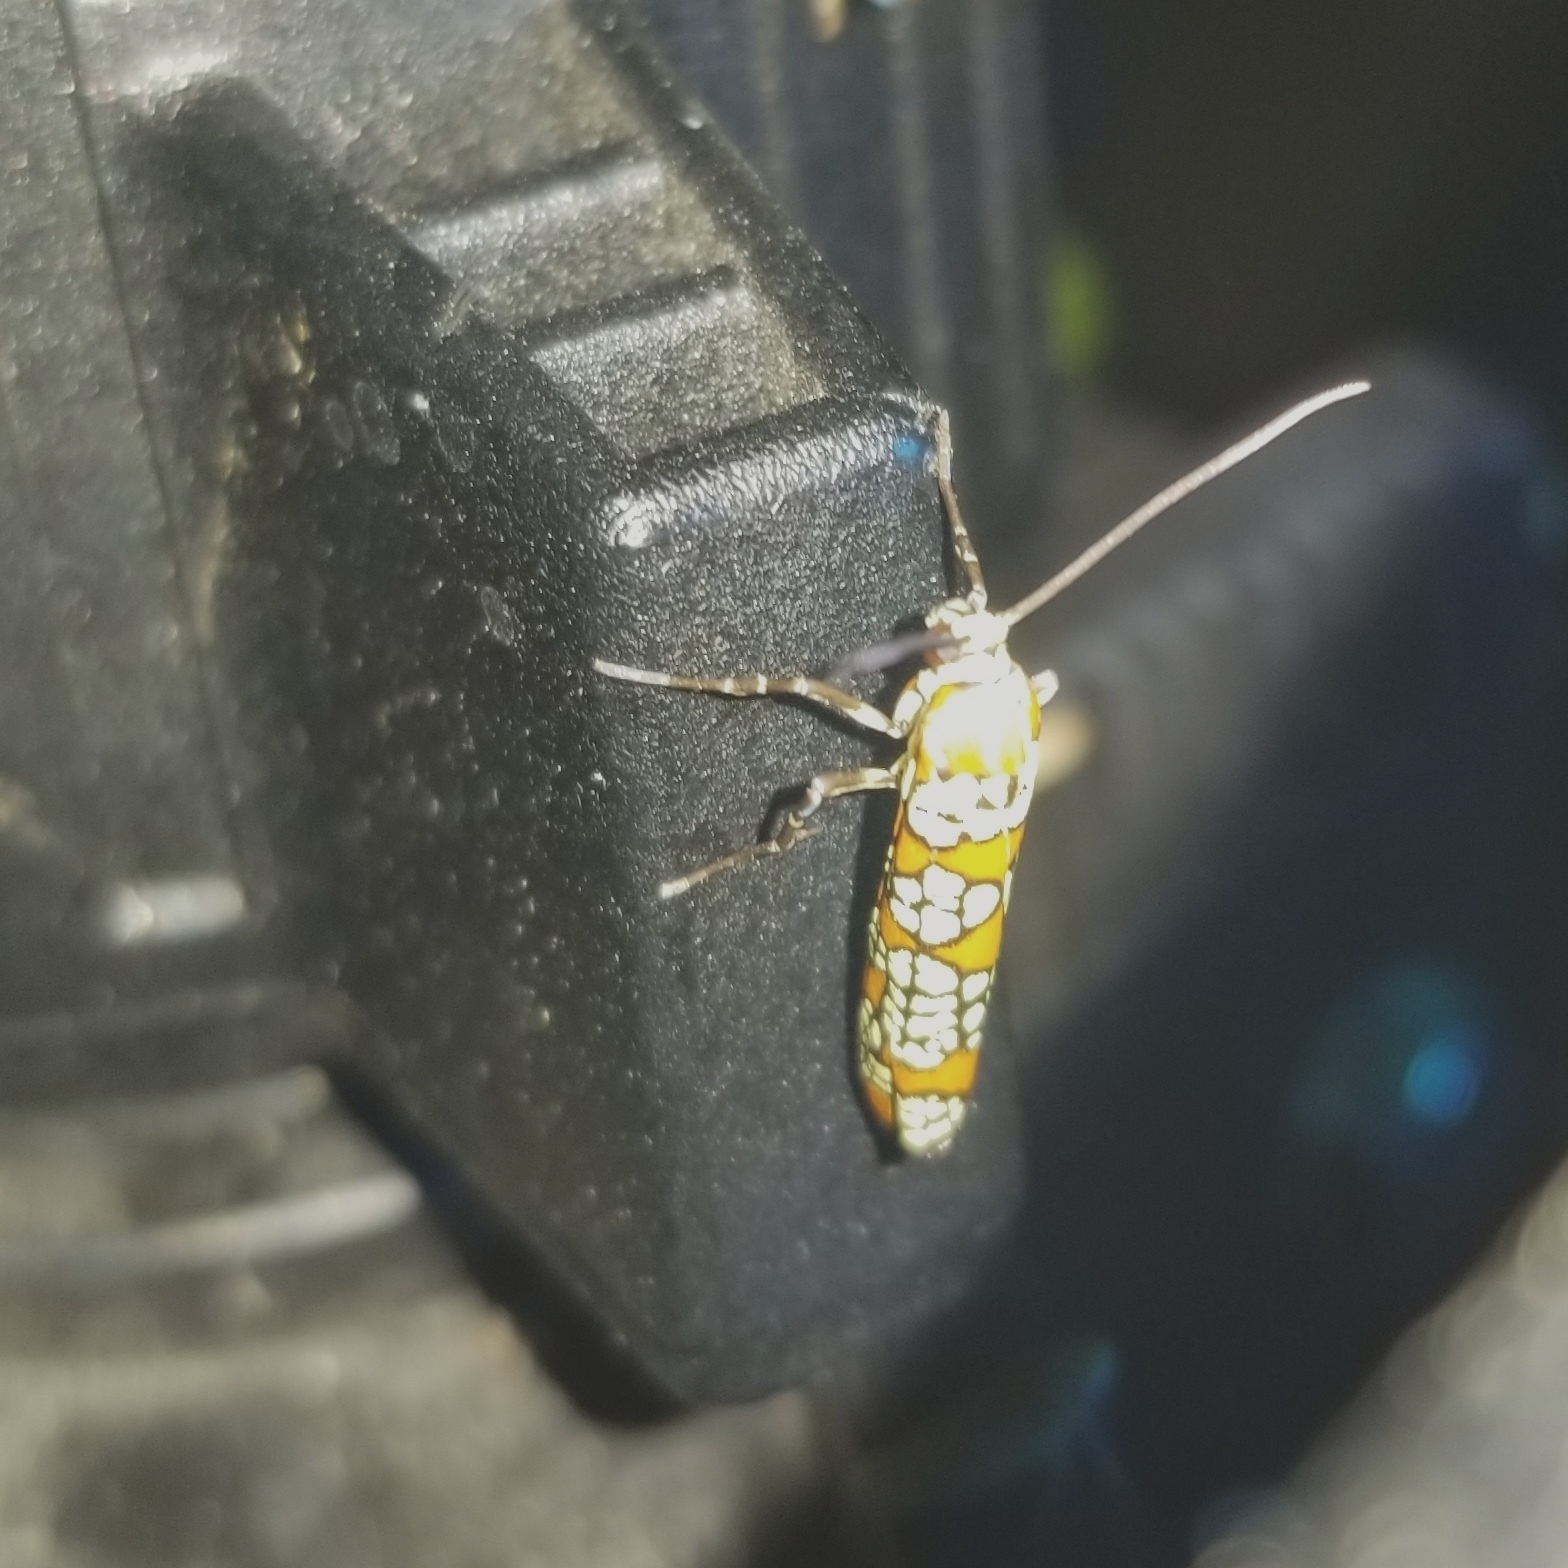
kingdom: Animalia
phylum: Arthropoda
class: Insecta
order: Lepidoptera
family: Attevidae
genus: Atteva
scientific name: Atteva punctella
